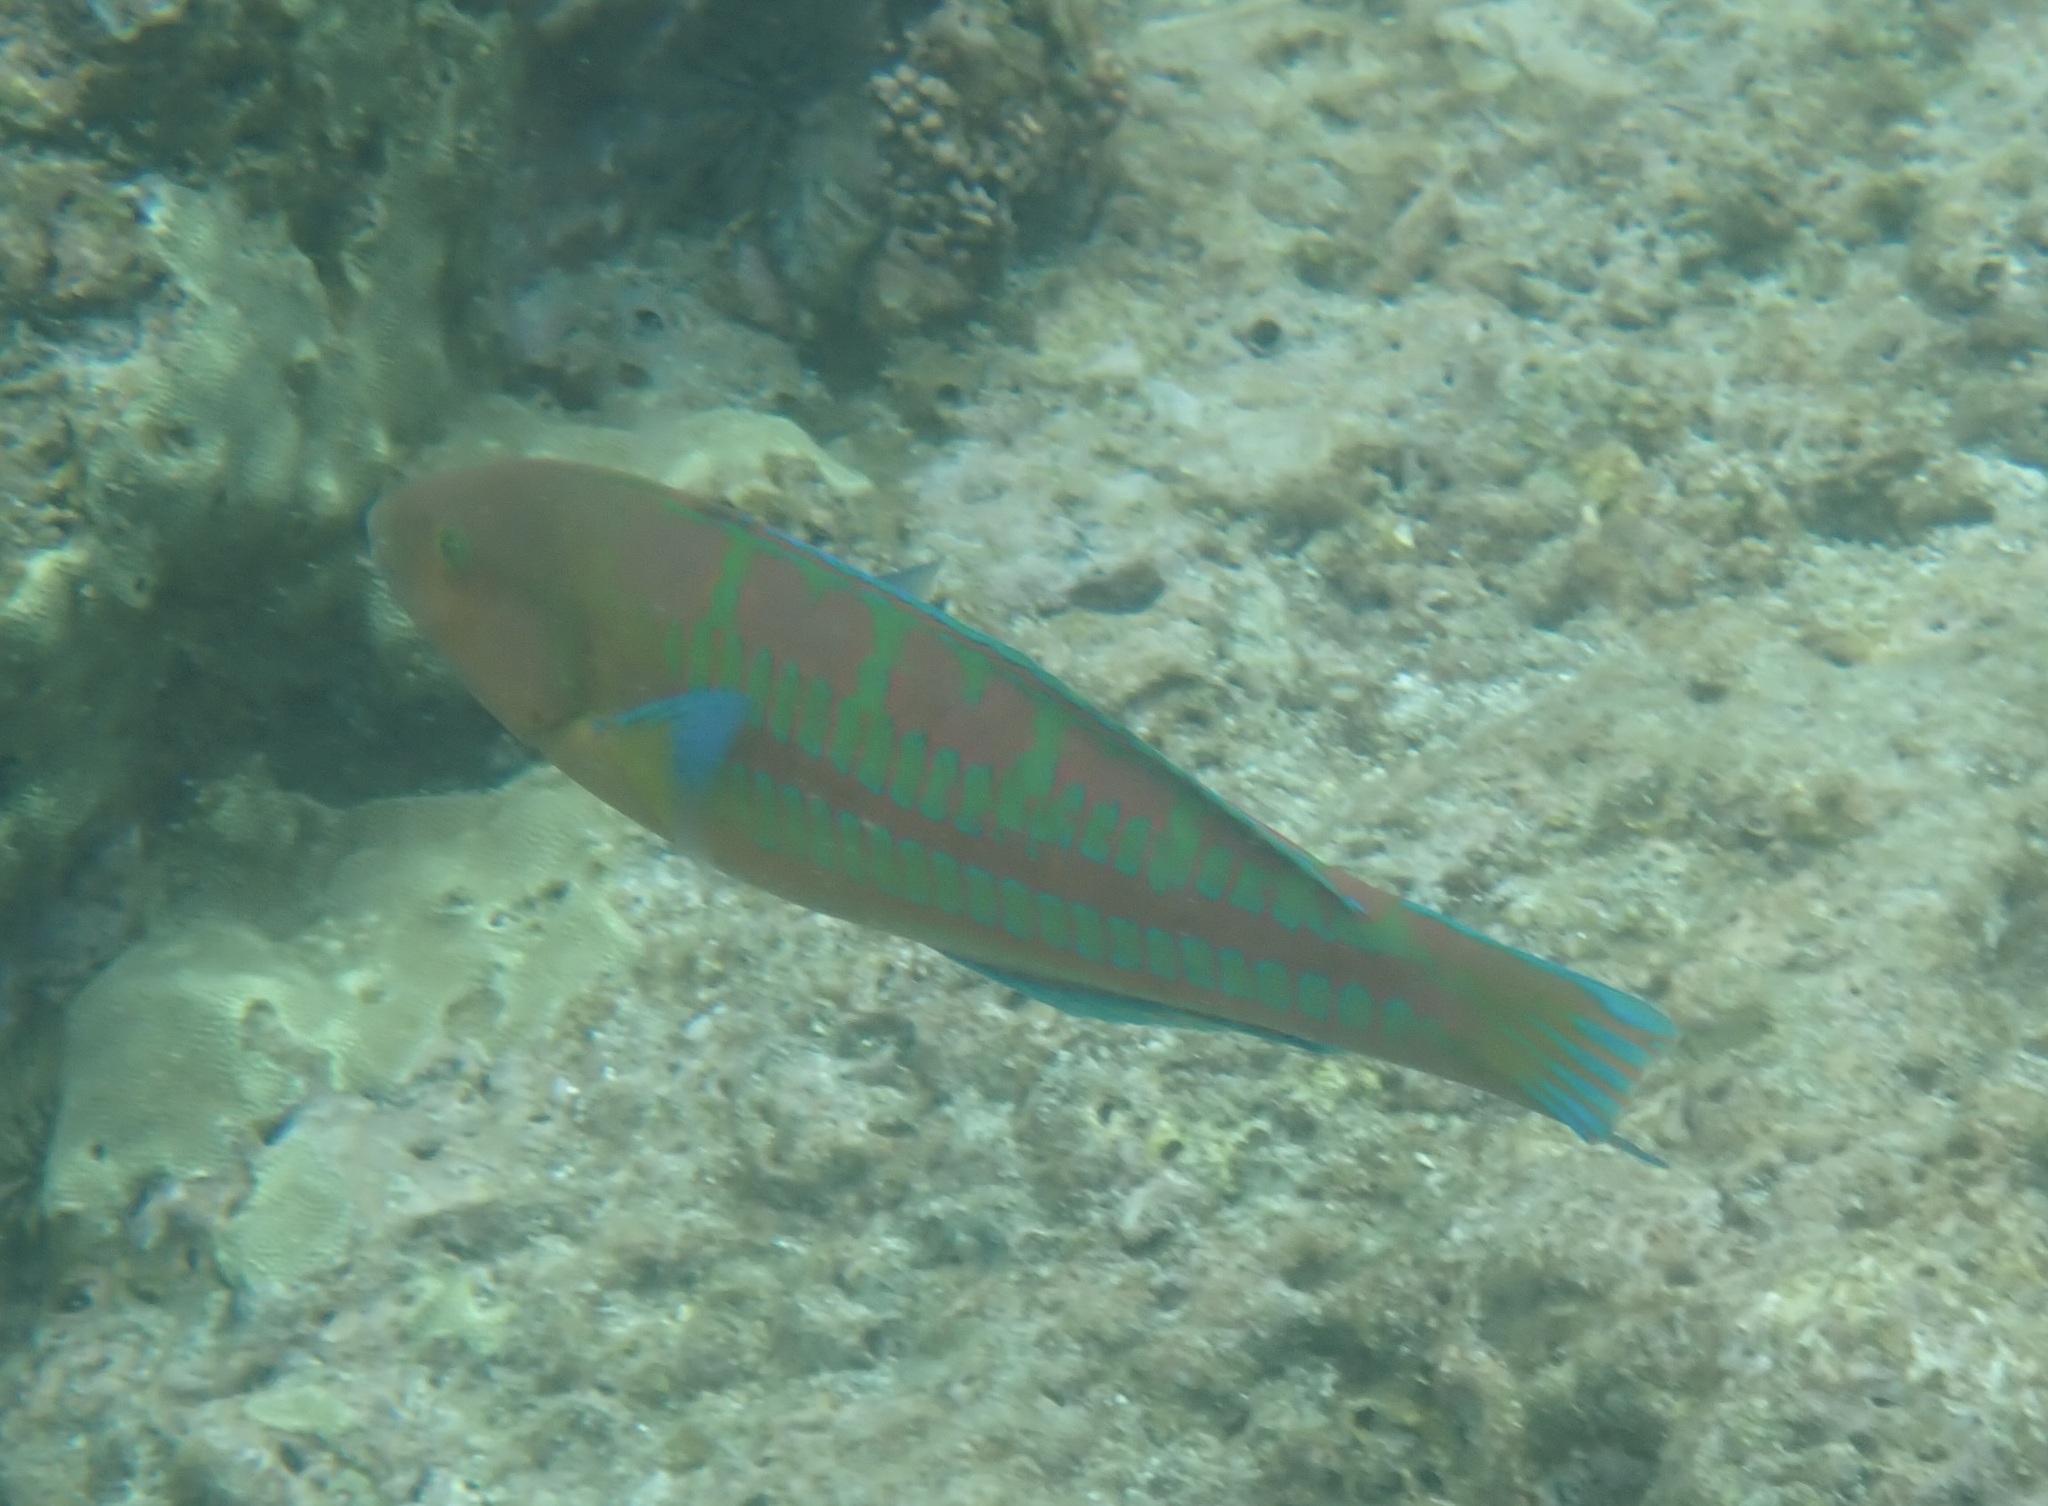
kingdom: Animalia
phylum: Chordata
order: Perciformes
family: Labridae
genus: Thalassoma
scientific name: Thalassoma trilobatum
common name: Christmas wrasse
